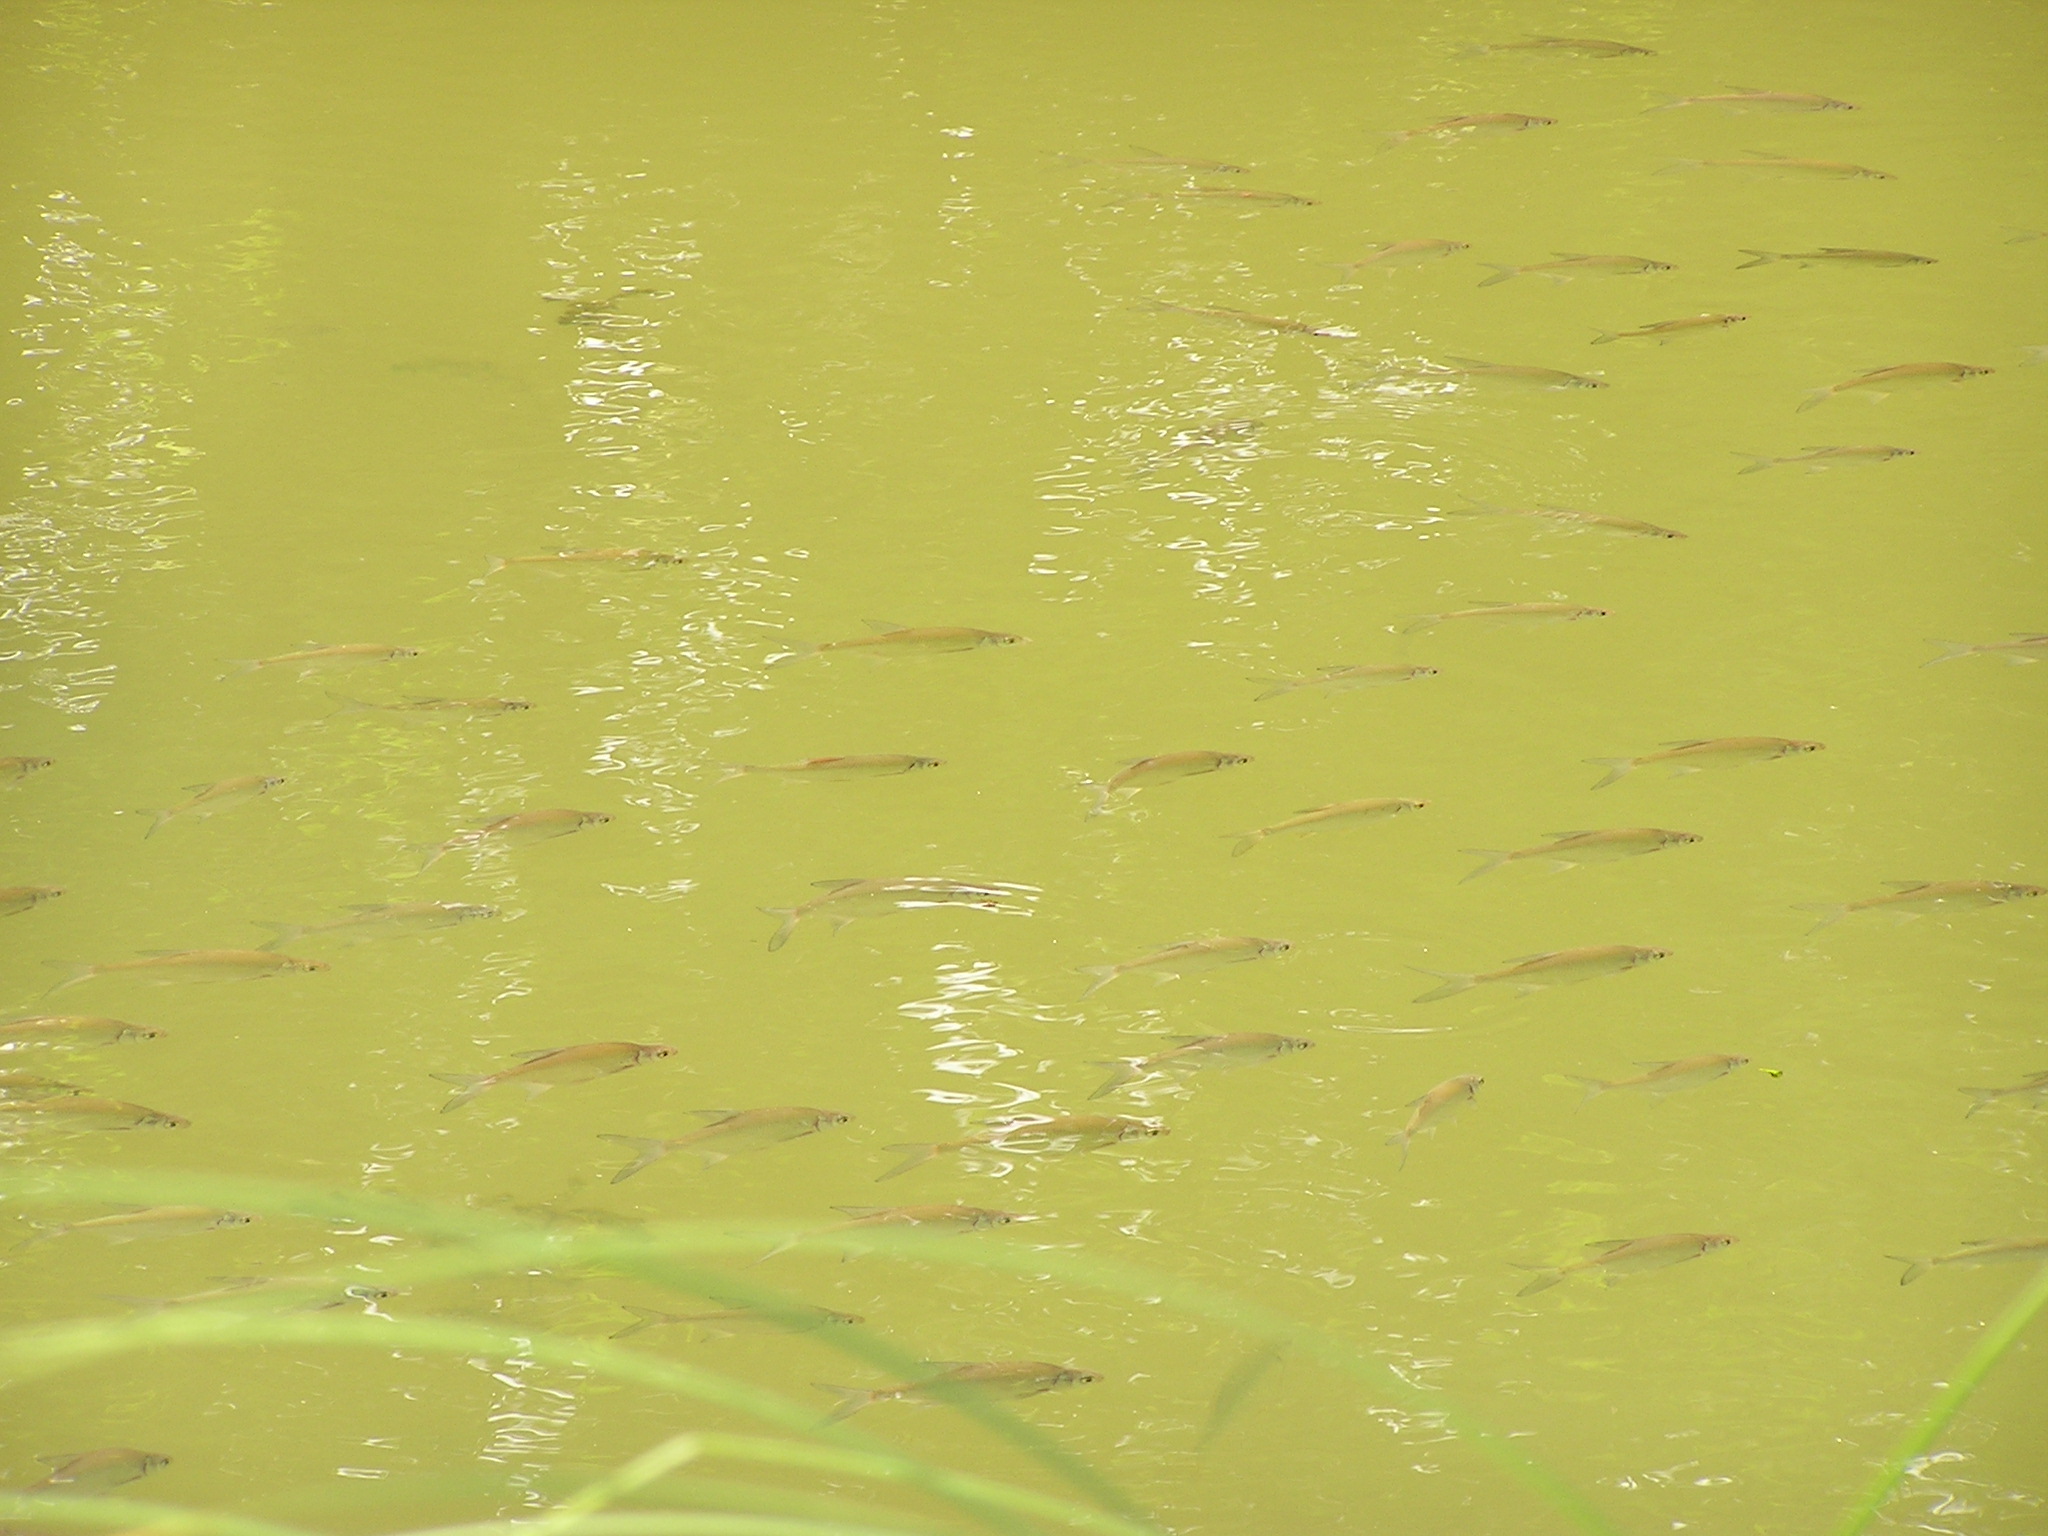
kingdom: Animalia
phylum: Chordata
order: Cypriniformes
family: Cyprinidae
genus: Blicca
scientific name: Blicca bjoerkna
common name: White bream
